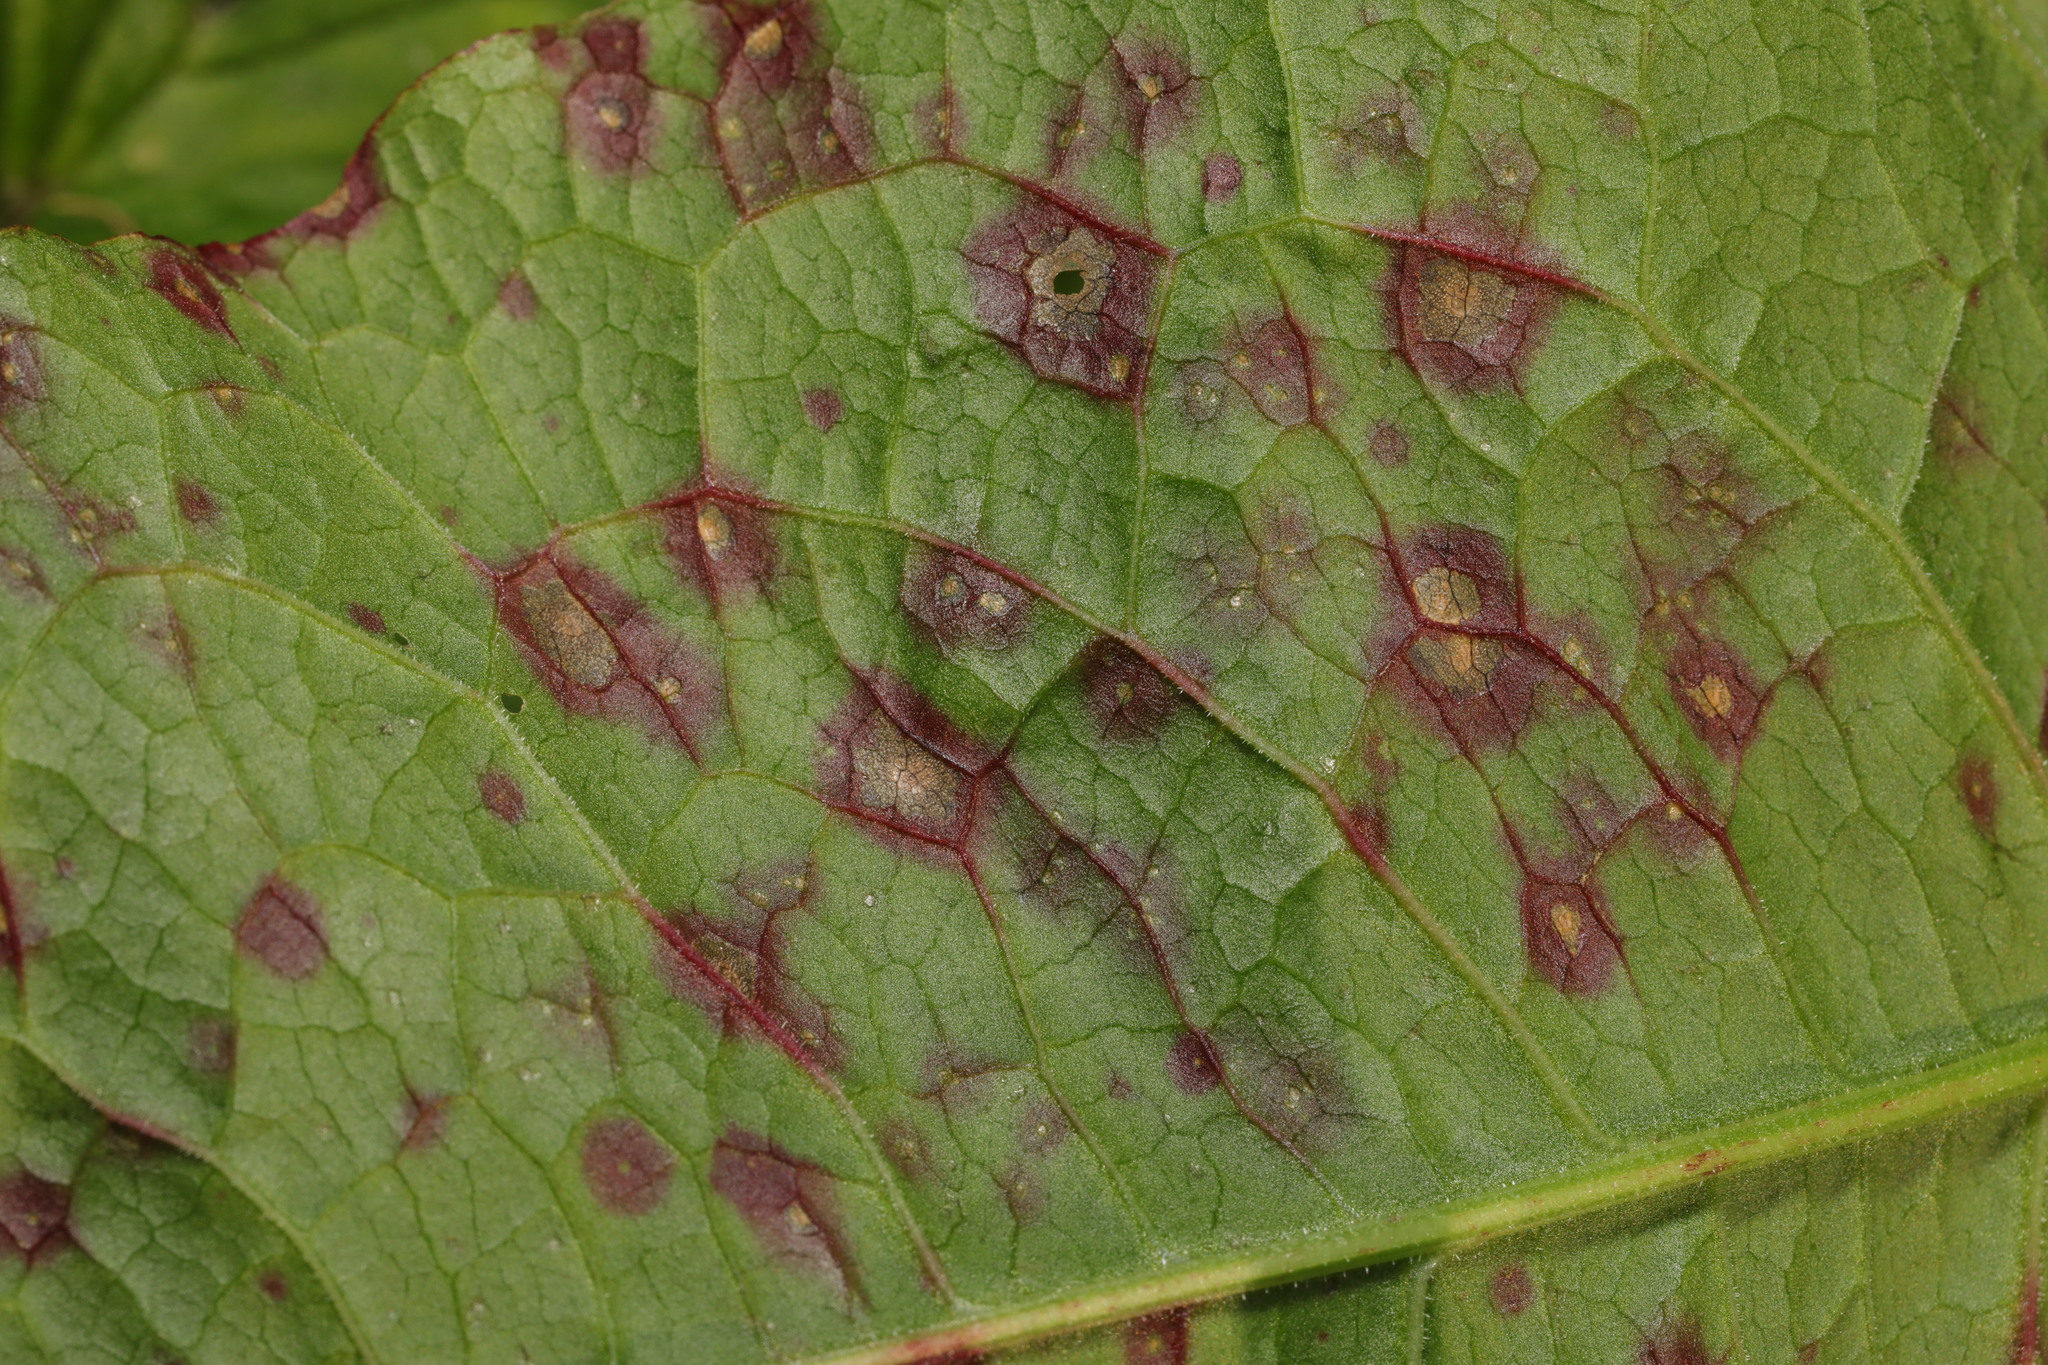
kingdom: Fungi
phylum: Ascomycota
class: Dothideomycetes
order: Mycosphaerellales
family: Mycosphaerellaceae
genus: Ramularia
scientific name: Ramularia rubella
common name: Red dock spot
